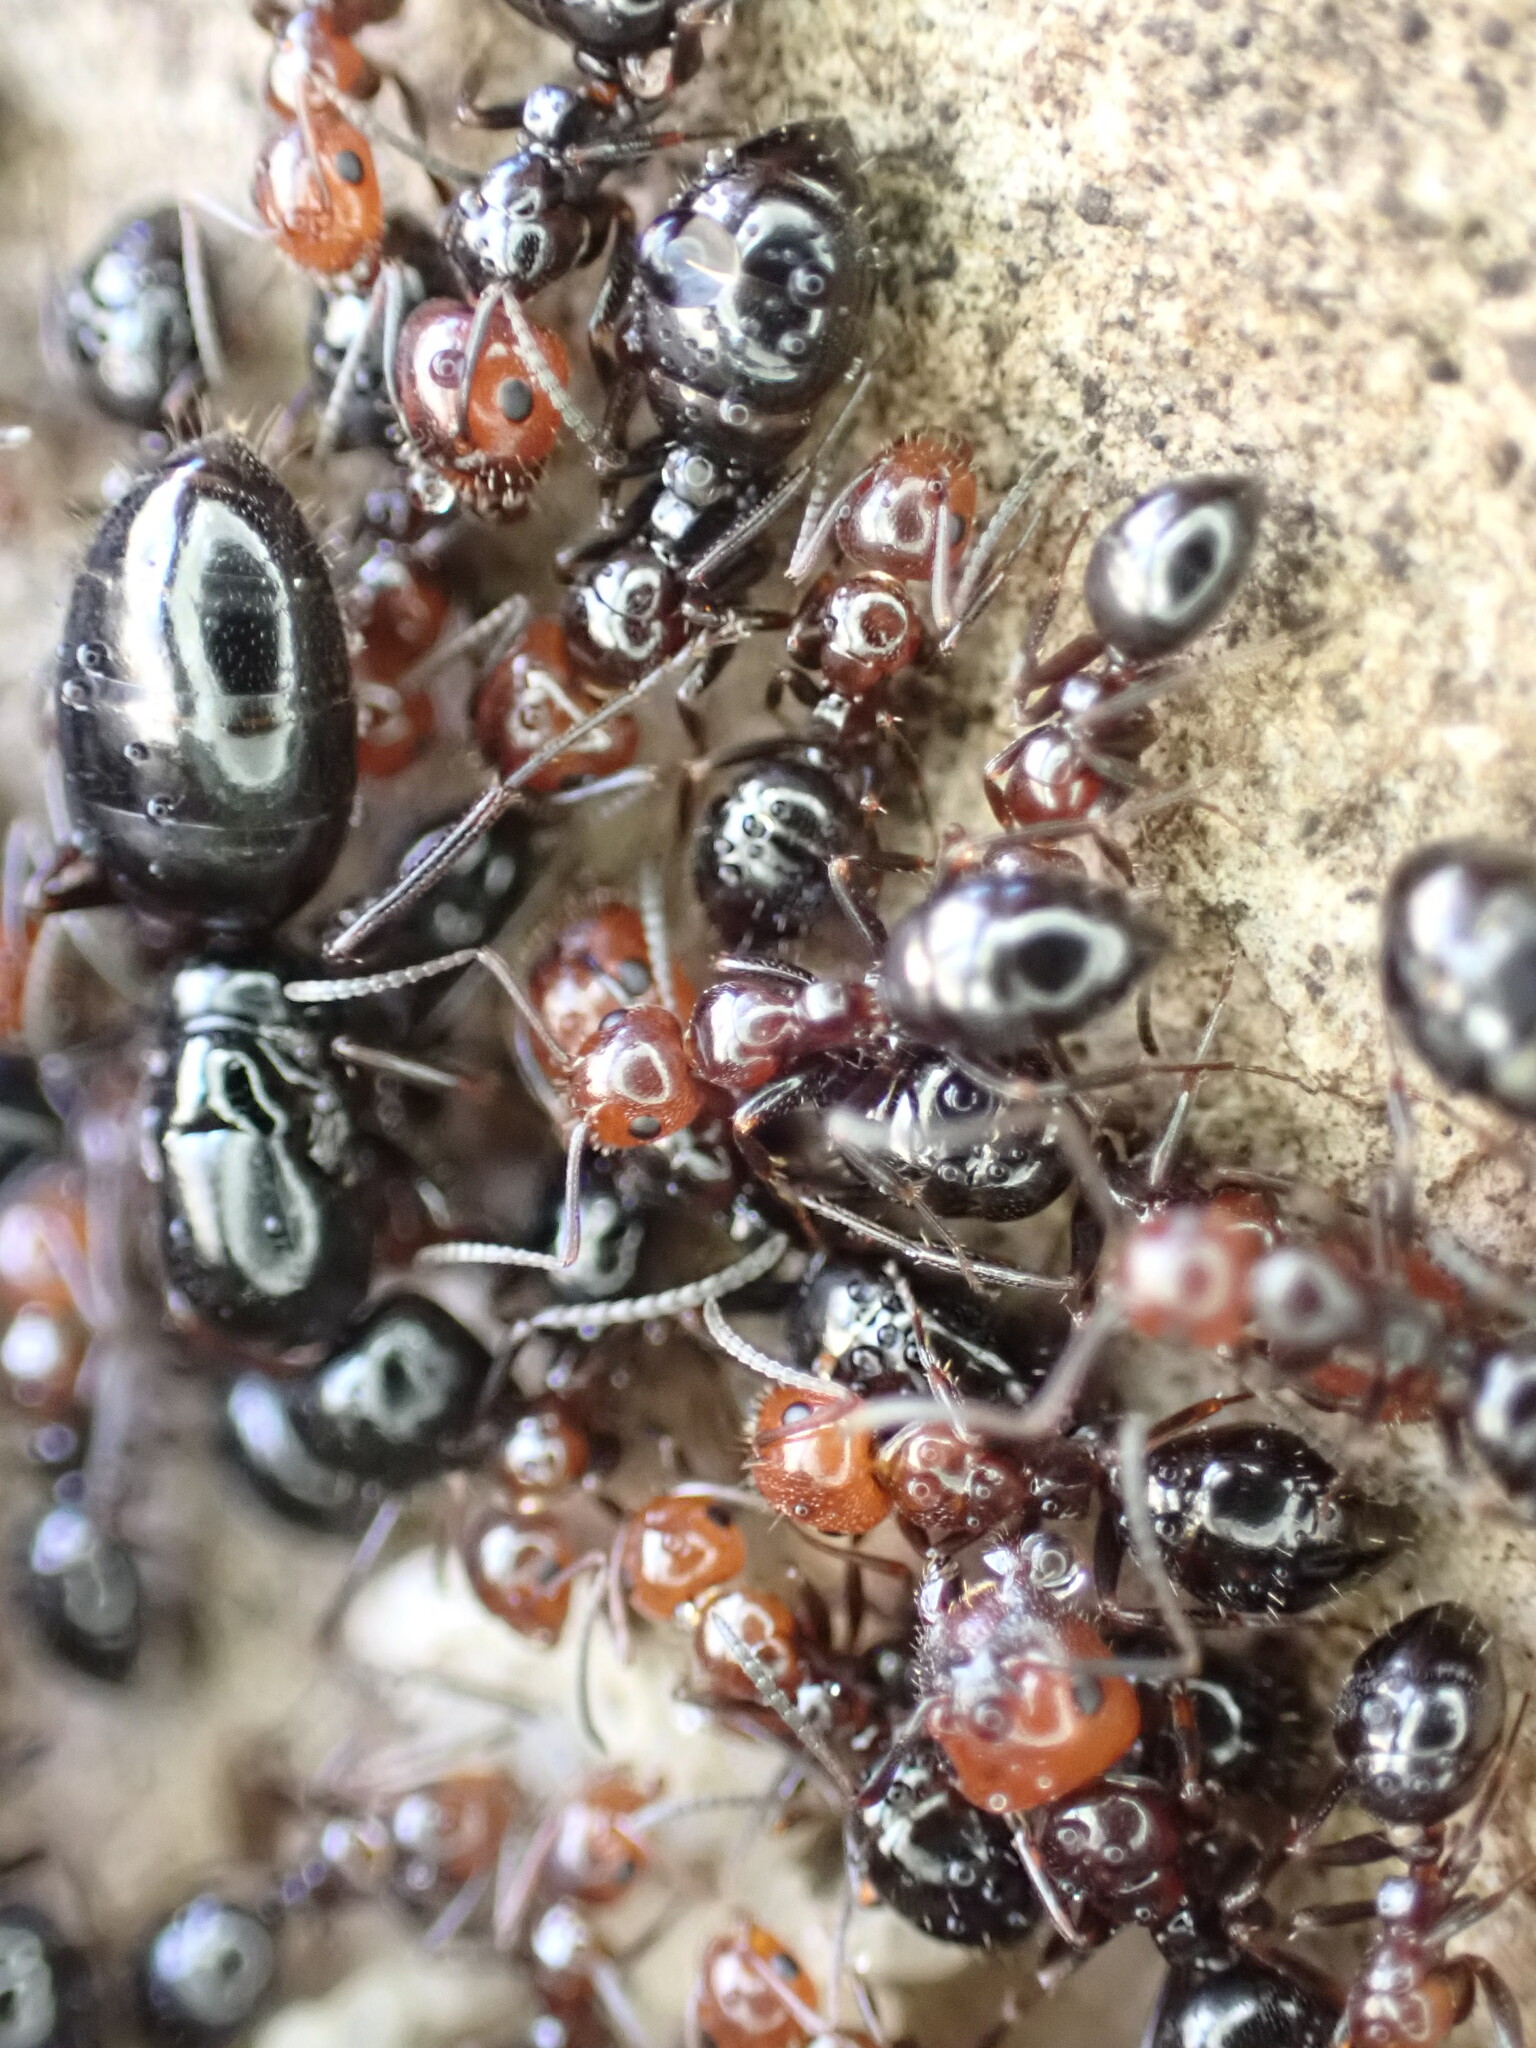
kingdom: Animalia
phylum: Arthropoda
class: Insecta
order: Hymenoptera
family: Formicidae
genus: Camponotus
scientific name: Camponotus lateralis
